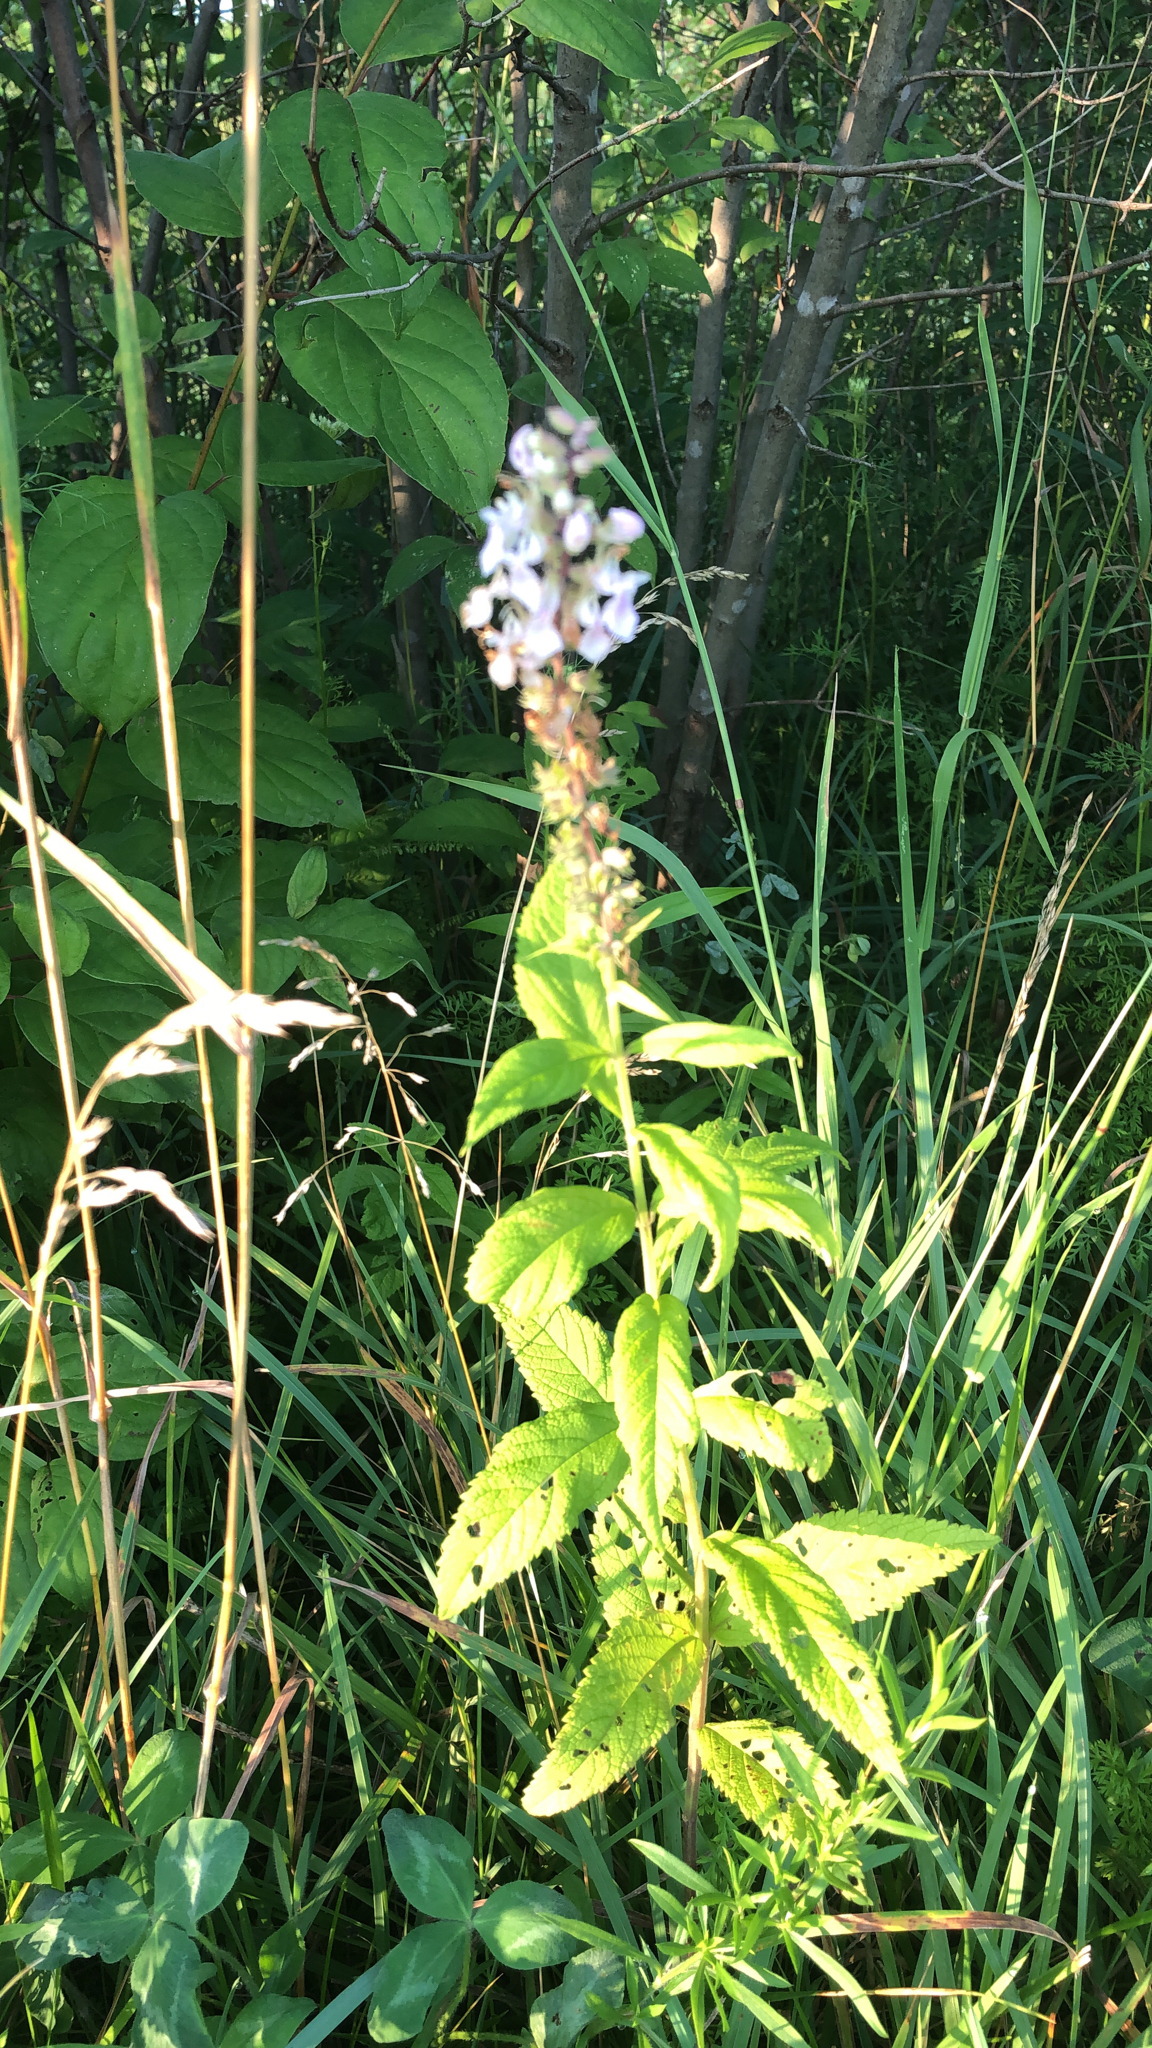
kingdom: Plantae
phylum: Tracheophyta
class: Magnoliopsida
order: Lamiales
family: Lamiaceae
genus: Teucrium
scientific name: Teucrium canadense
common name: American germander
